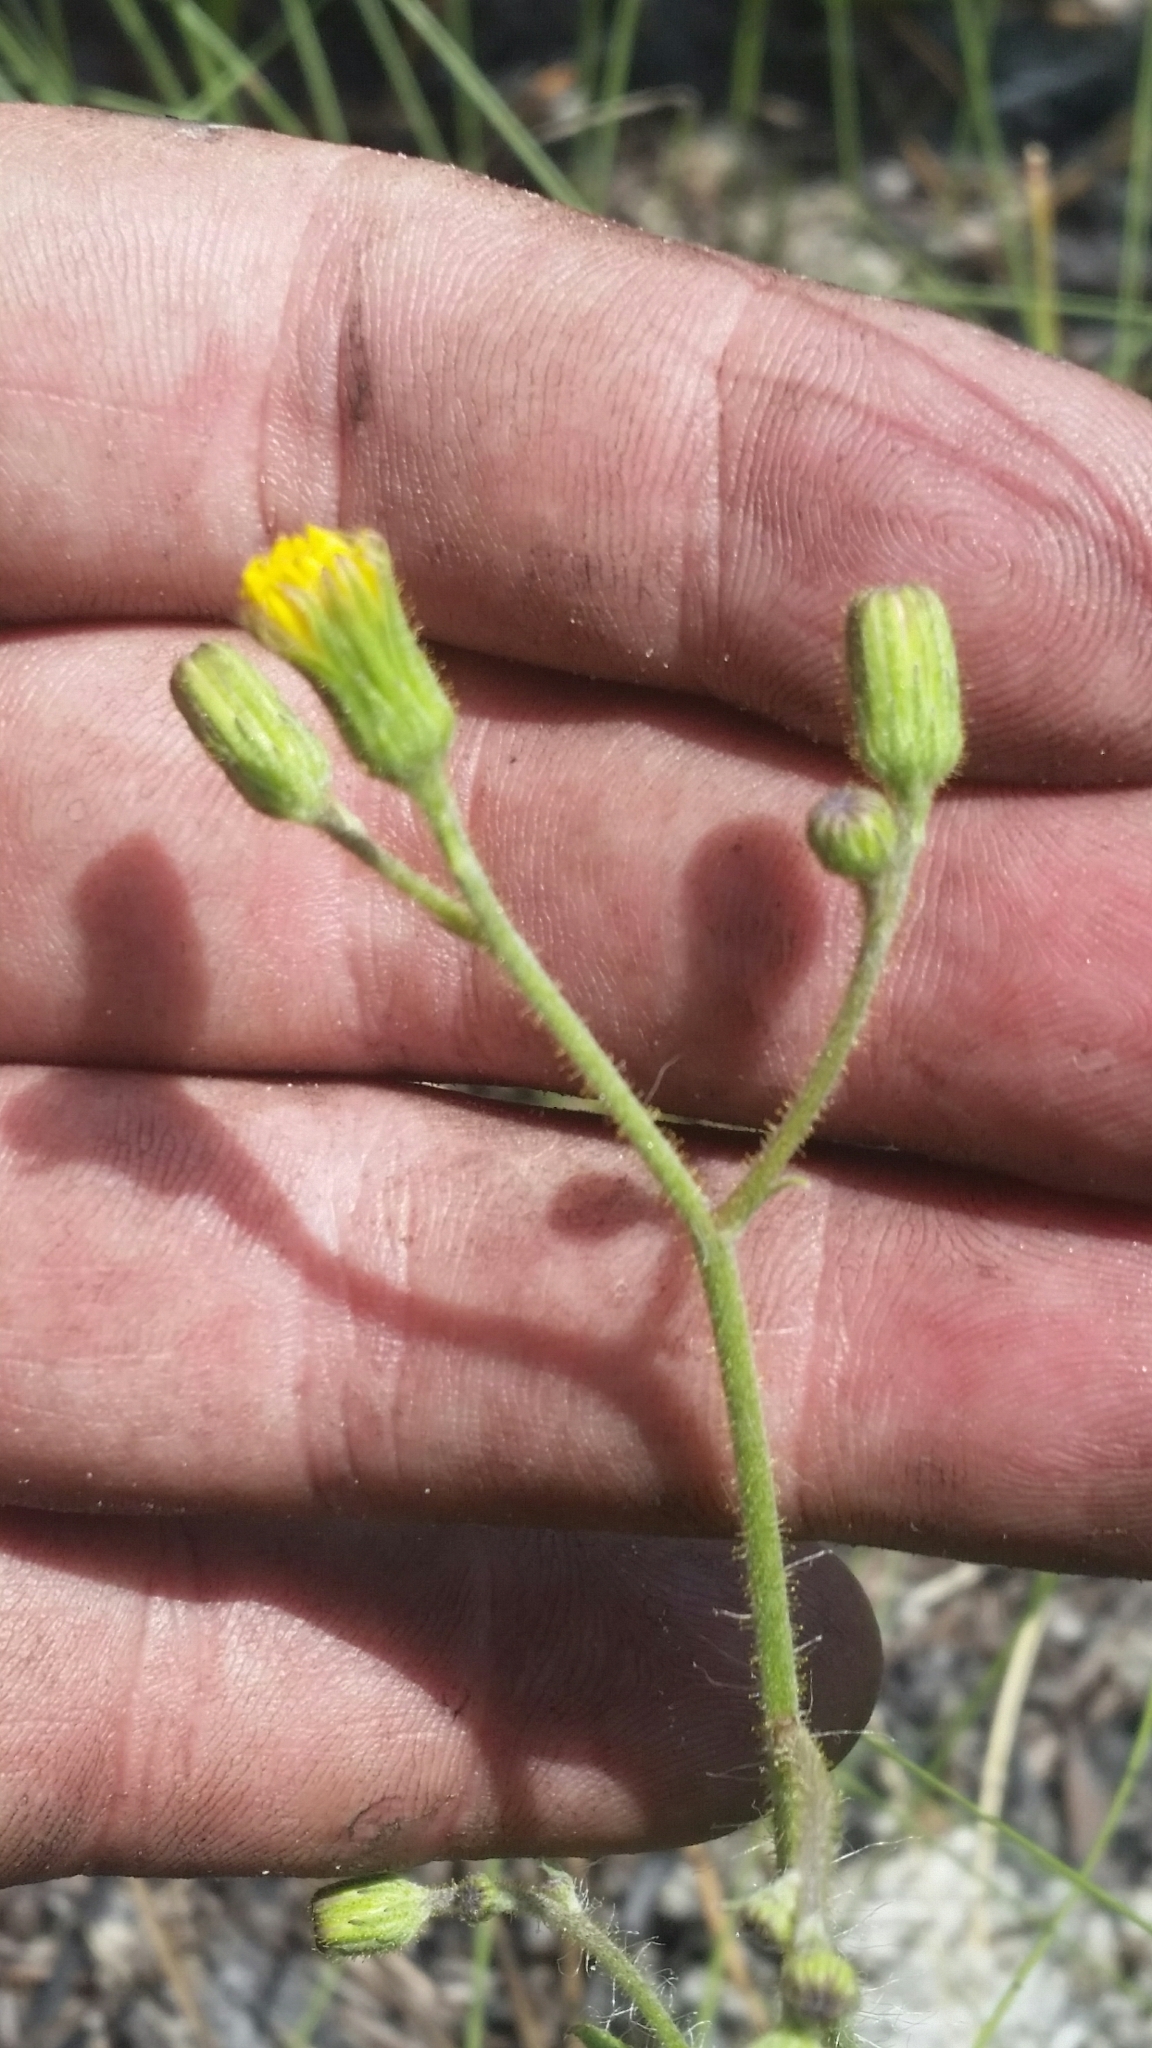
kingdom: Plantae
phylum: Tracheophyta
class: Magnoliopsida
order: Asterales
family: Asteraceae
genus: Hieracium
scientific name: Hieracium megacephalum
